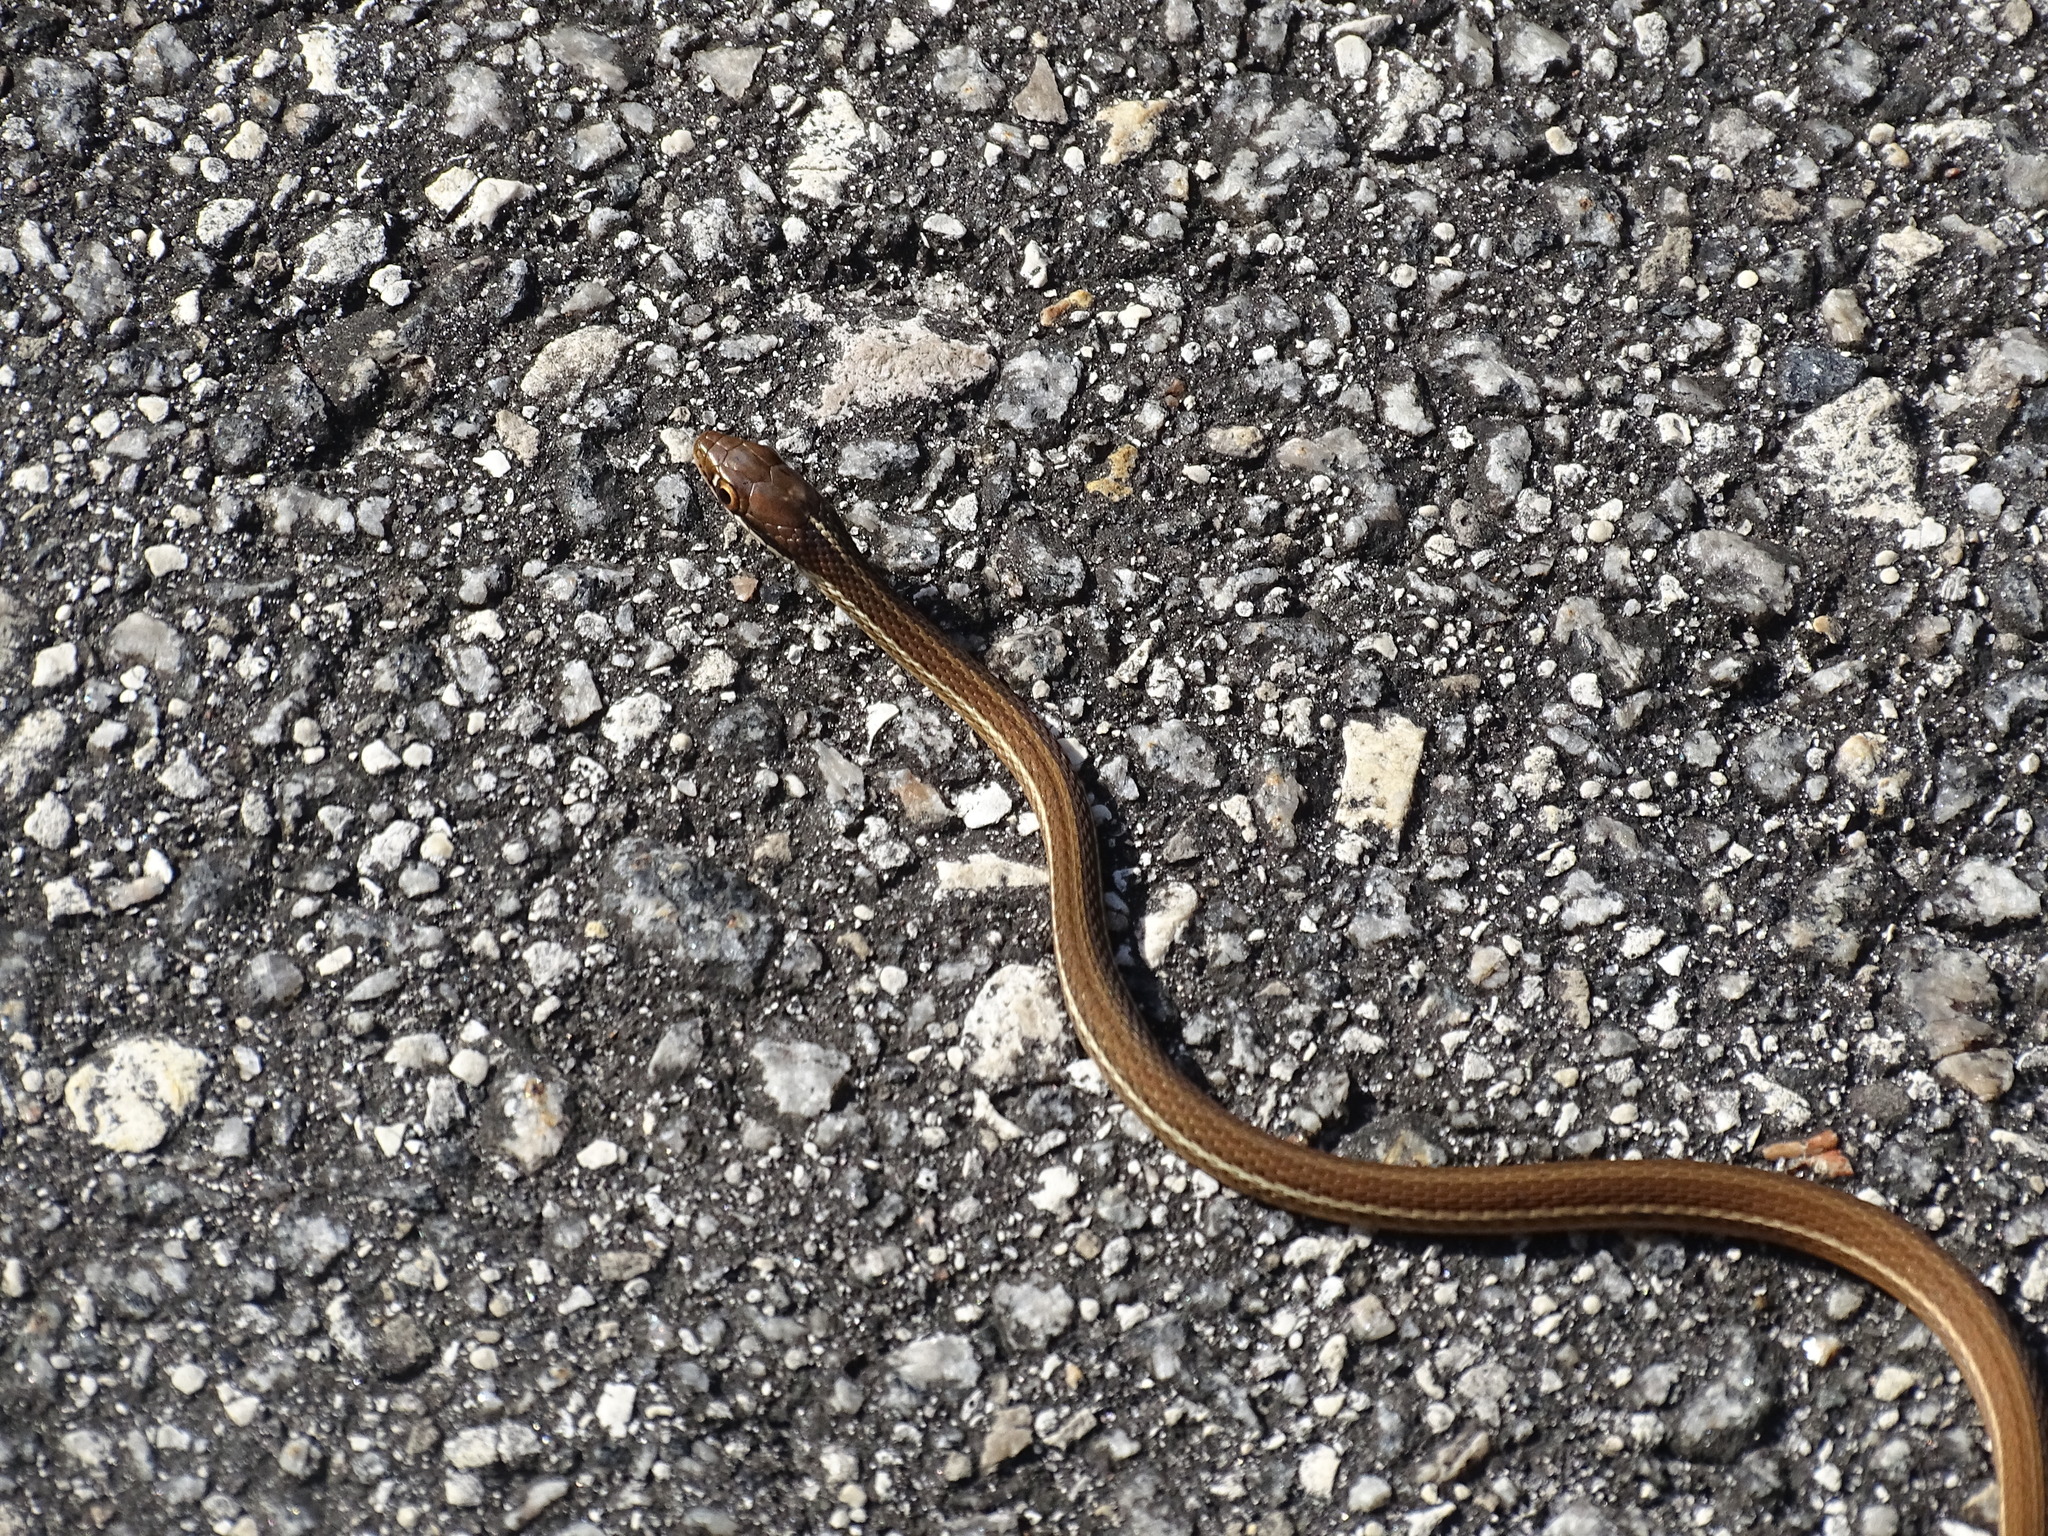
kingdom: Animalia
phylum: Chordata
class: Squamata
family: Colubridae
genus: Thamnophis
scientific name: Thamnophis saurita
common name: Eastern ribbonsnake
